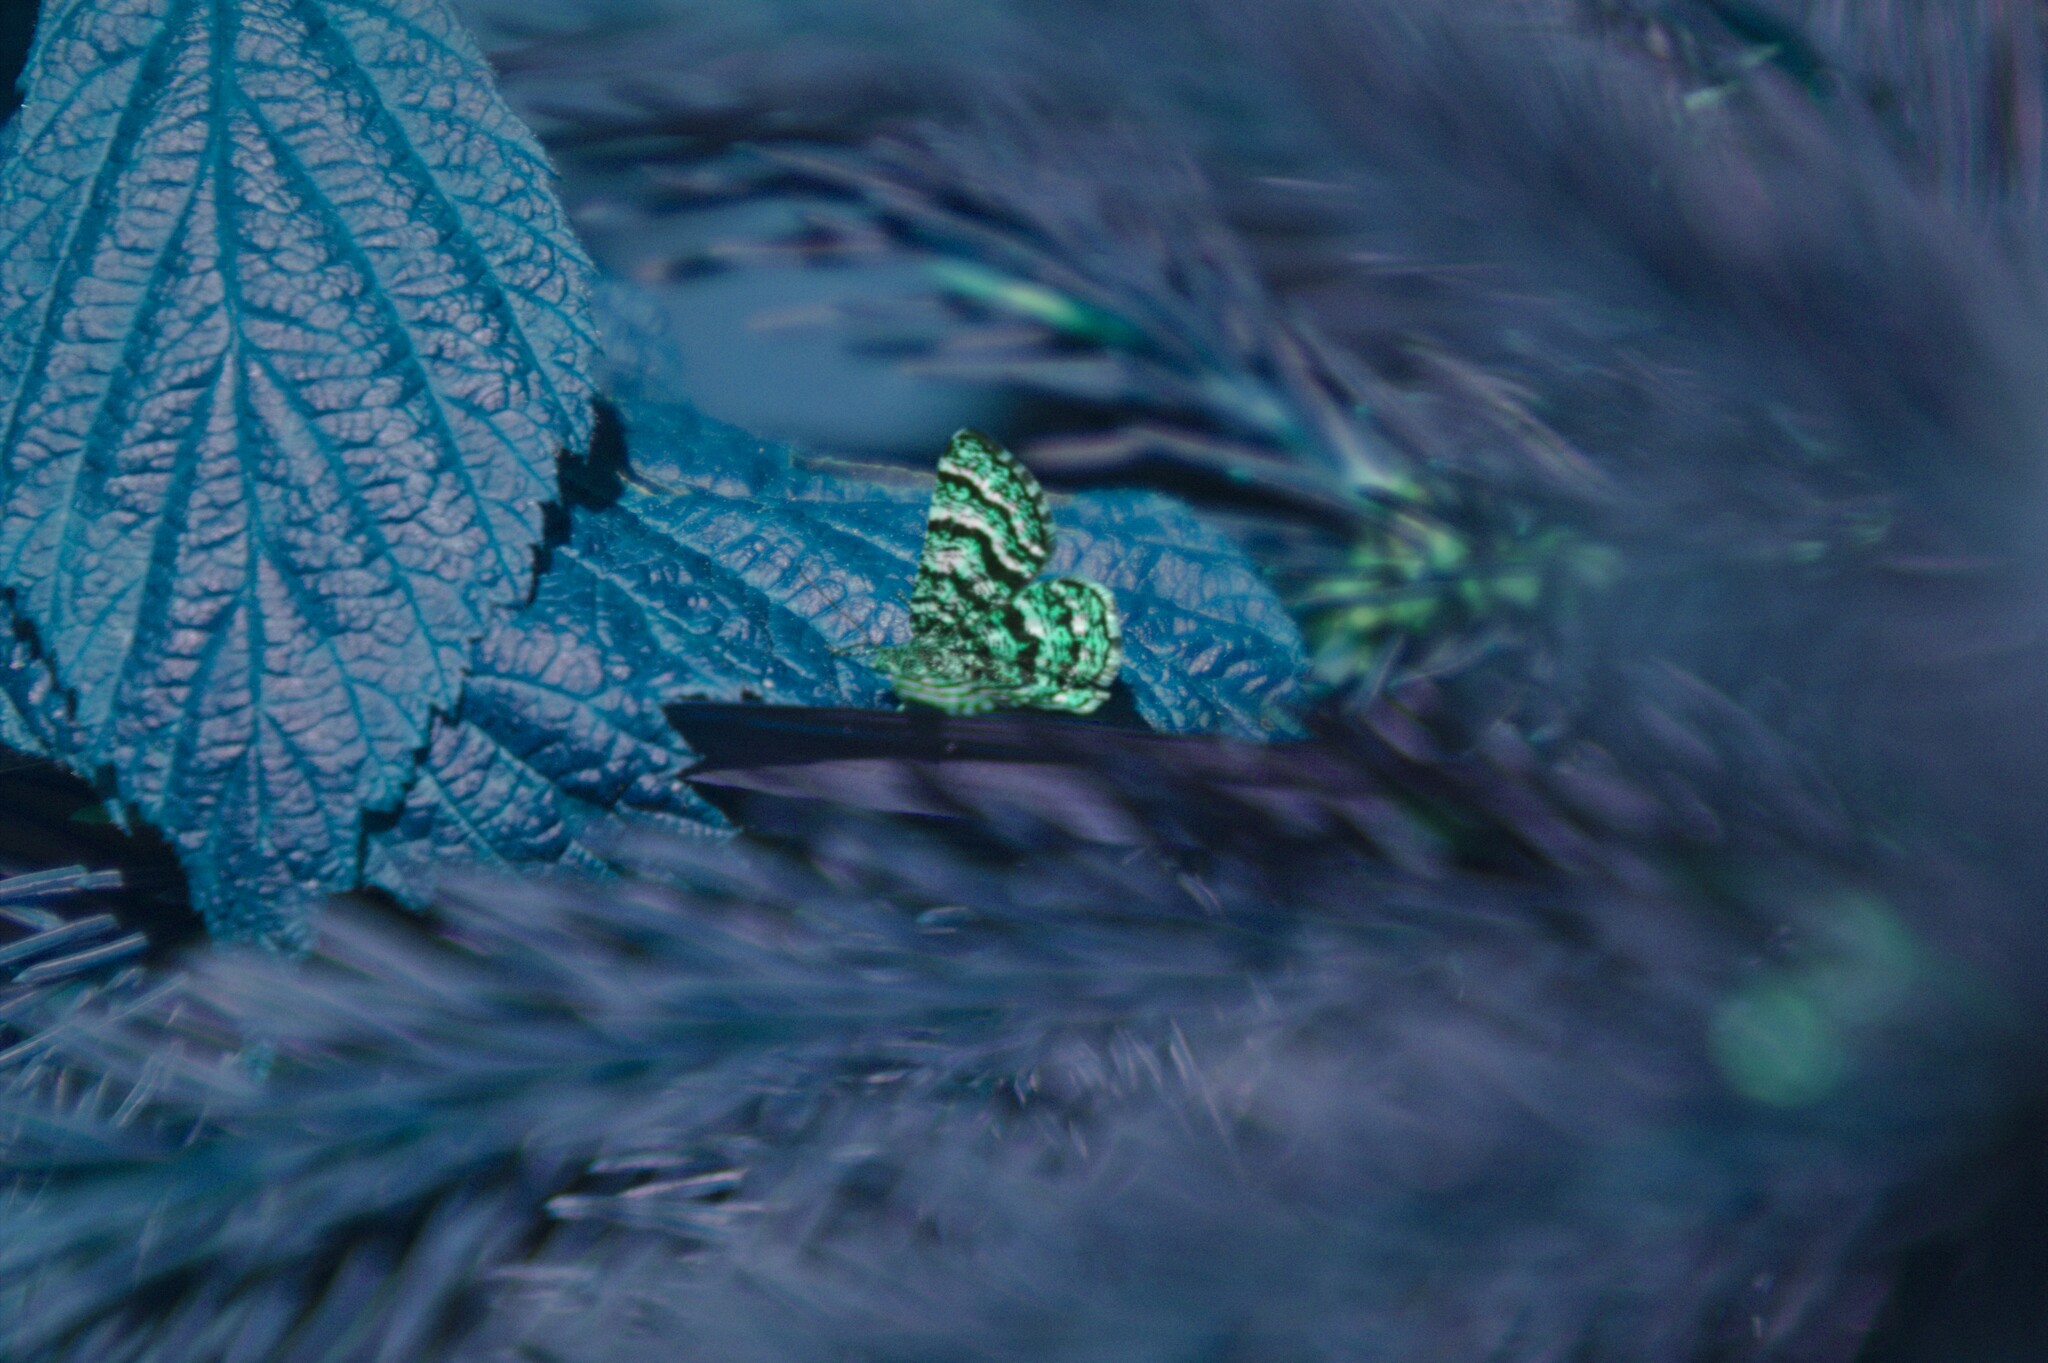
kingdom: Animalia
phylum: Arthropoda
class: Insecta
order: Lepidoptera
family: Geometridae
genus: Macaria
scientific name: Macaria truncataria
